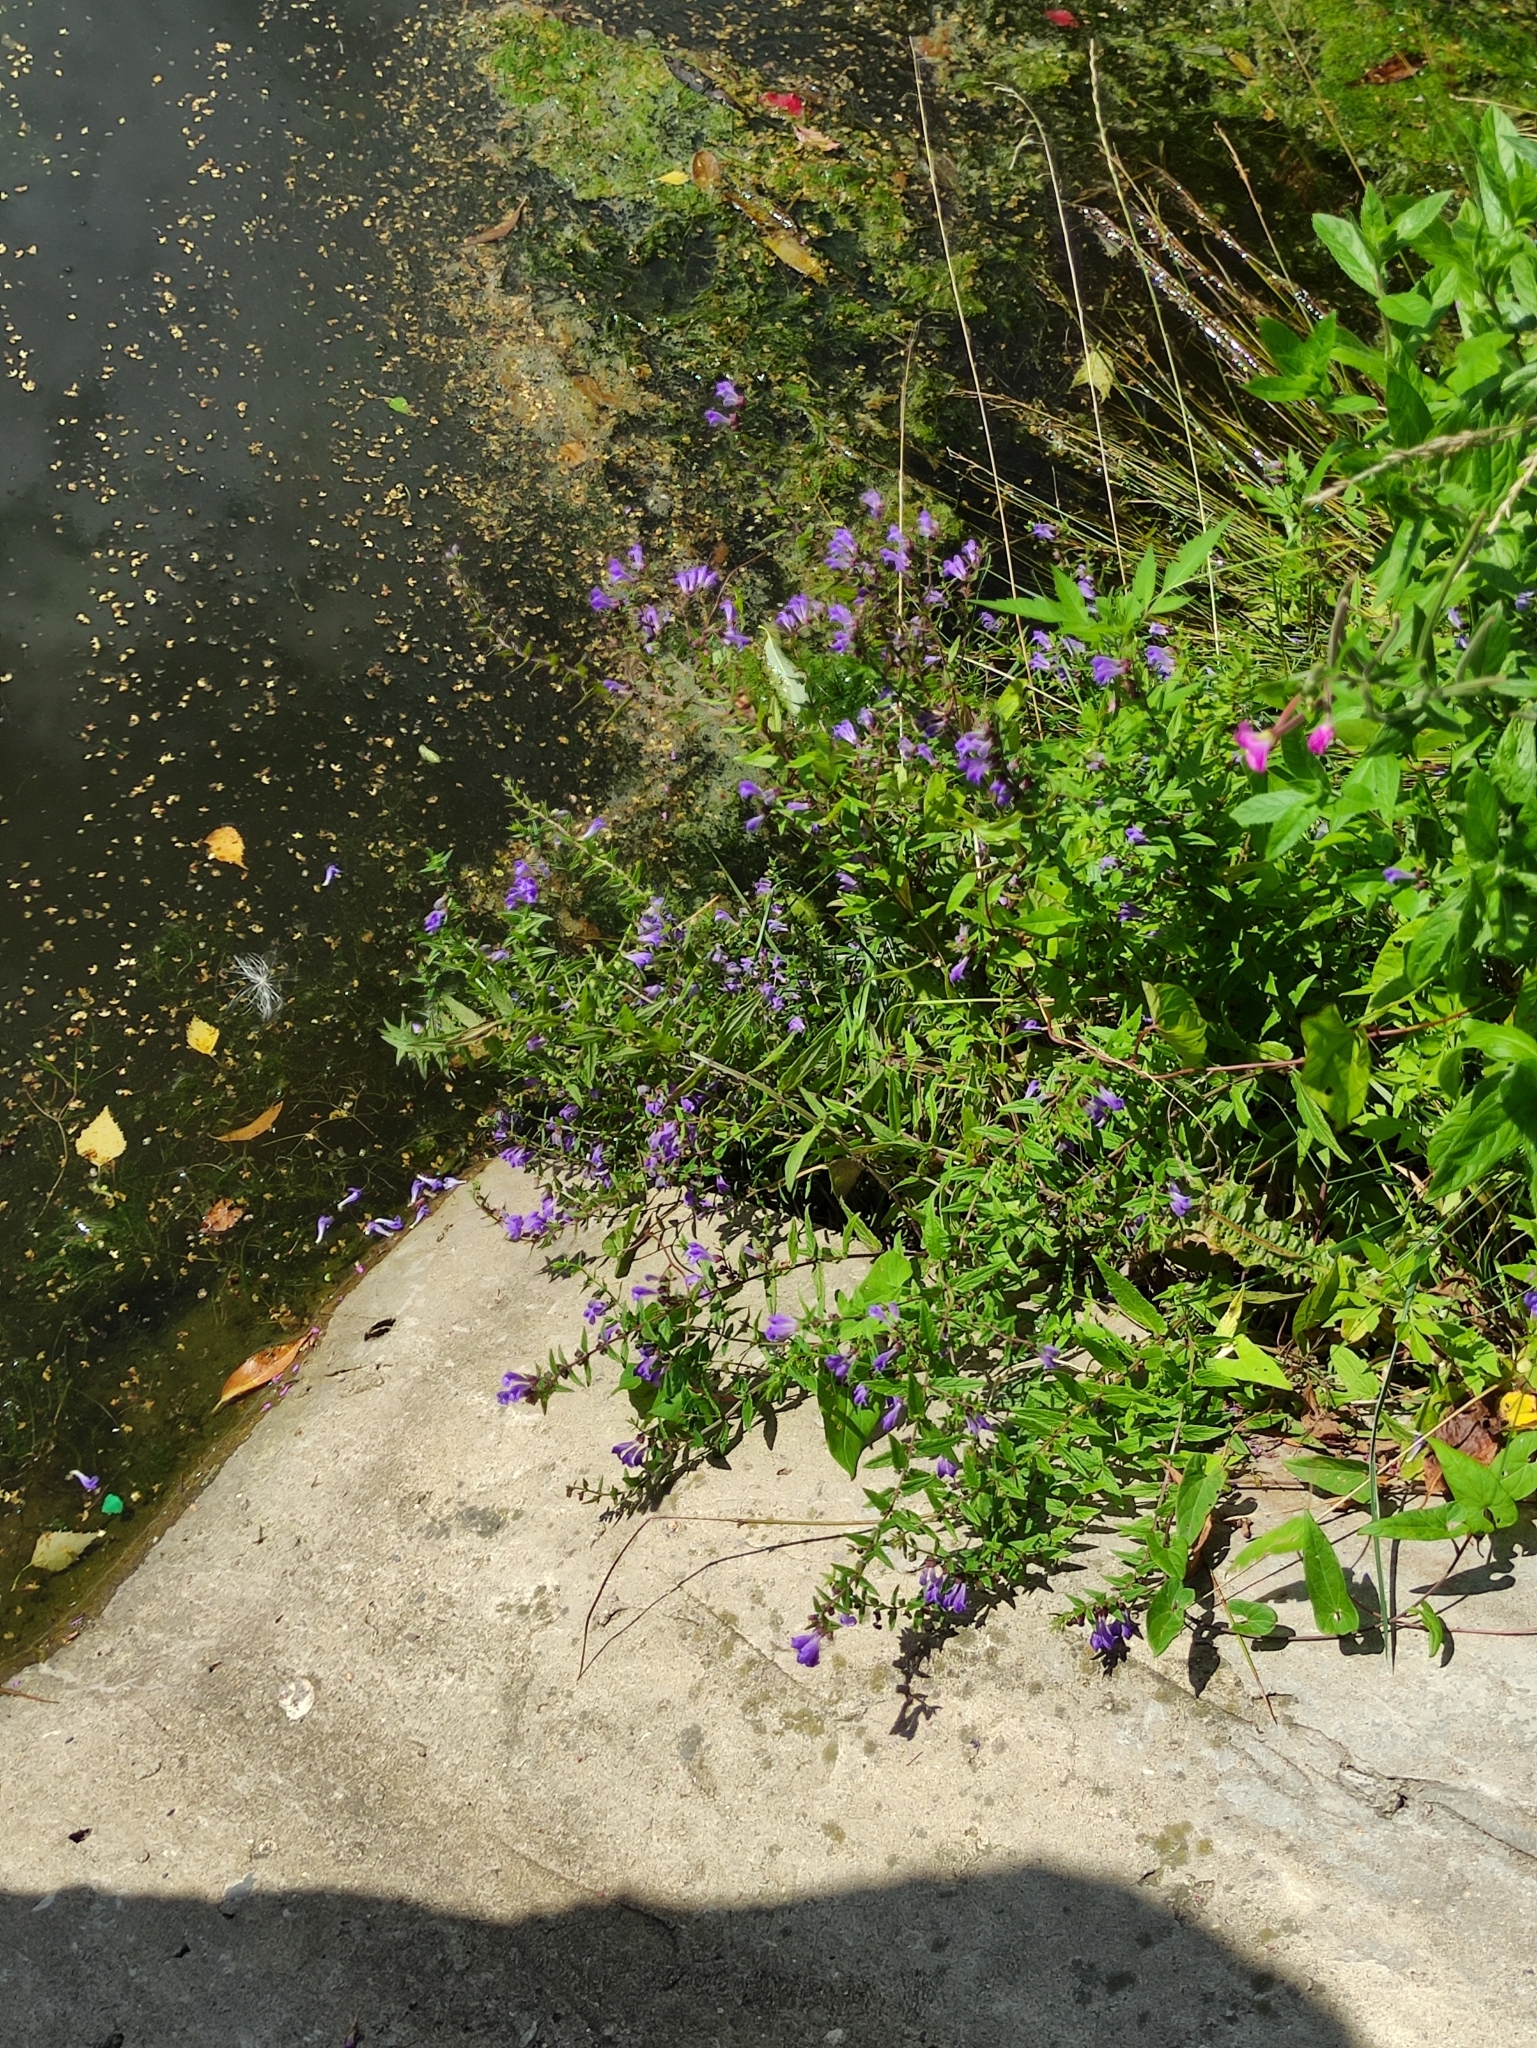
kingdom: Plantae
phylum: Tracheophyta
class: Magnoliopsida
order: Lamiales
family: Lamiaceae
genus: Scutellaria
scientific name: Scutellaria galericulata
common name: Skullcap
